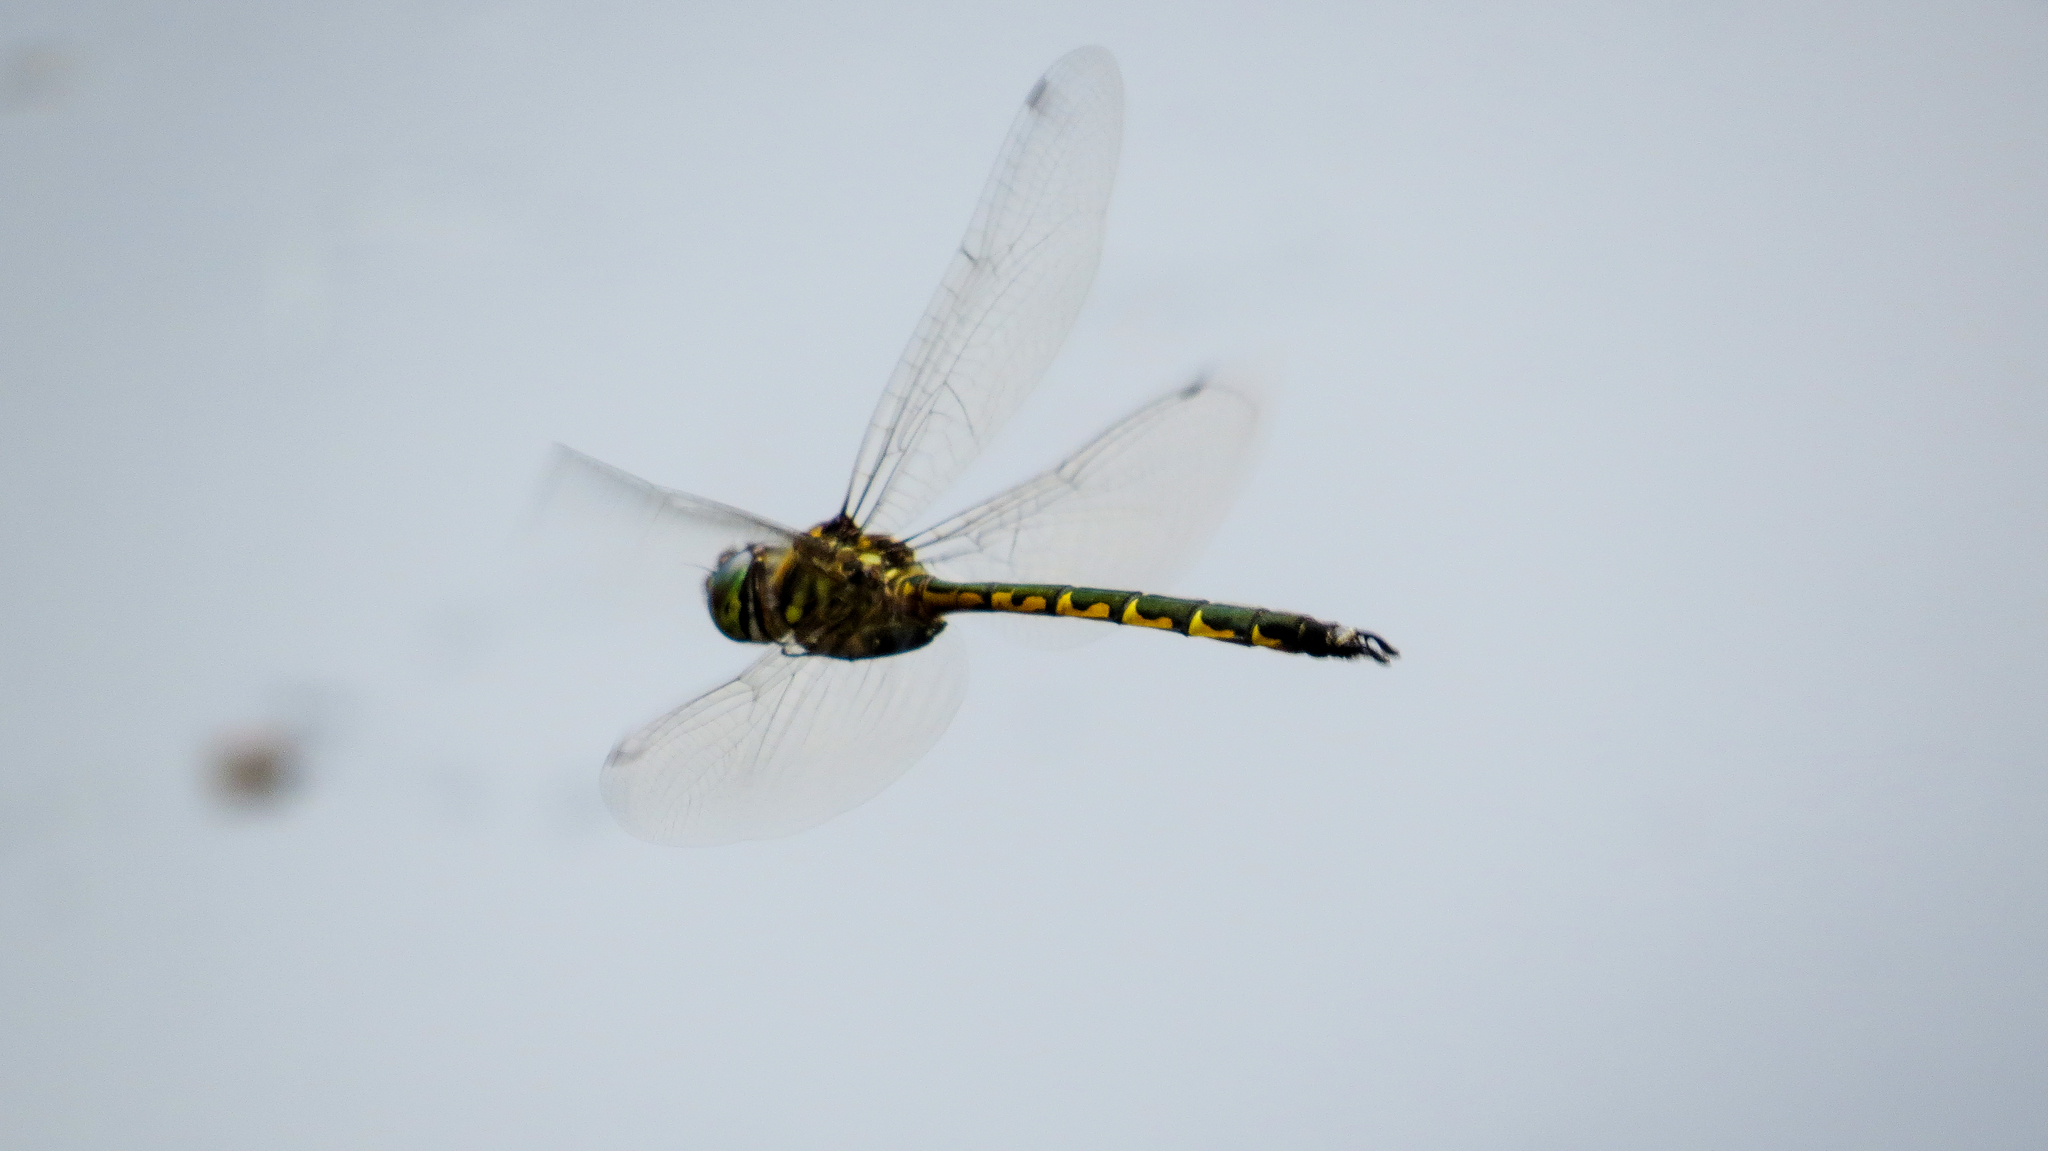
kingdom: Animalia
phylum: Arthropoda
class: Insecta
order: Odonata
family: Corduliidae
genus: Hemicordulia
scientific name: Hemicordulia australiae
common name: Sentry dragonfly
